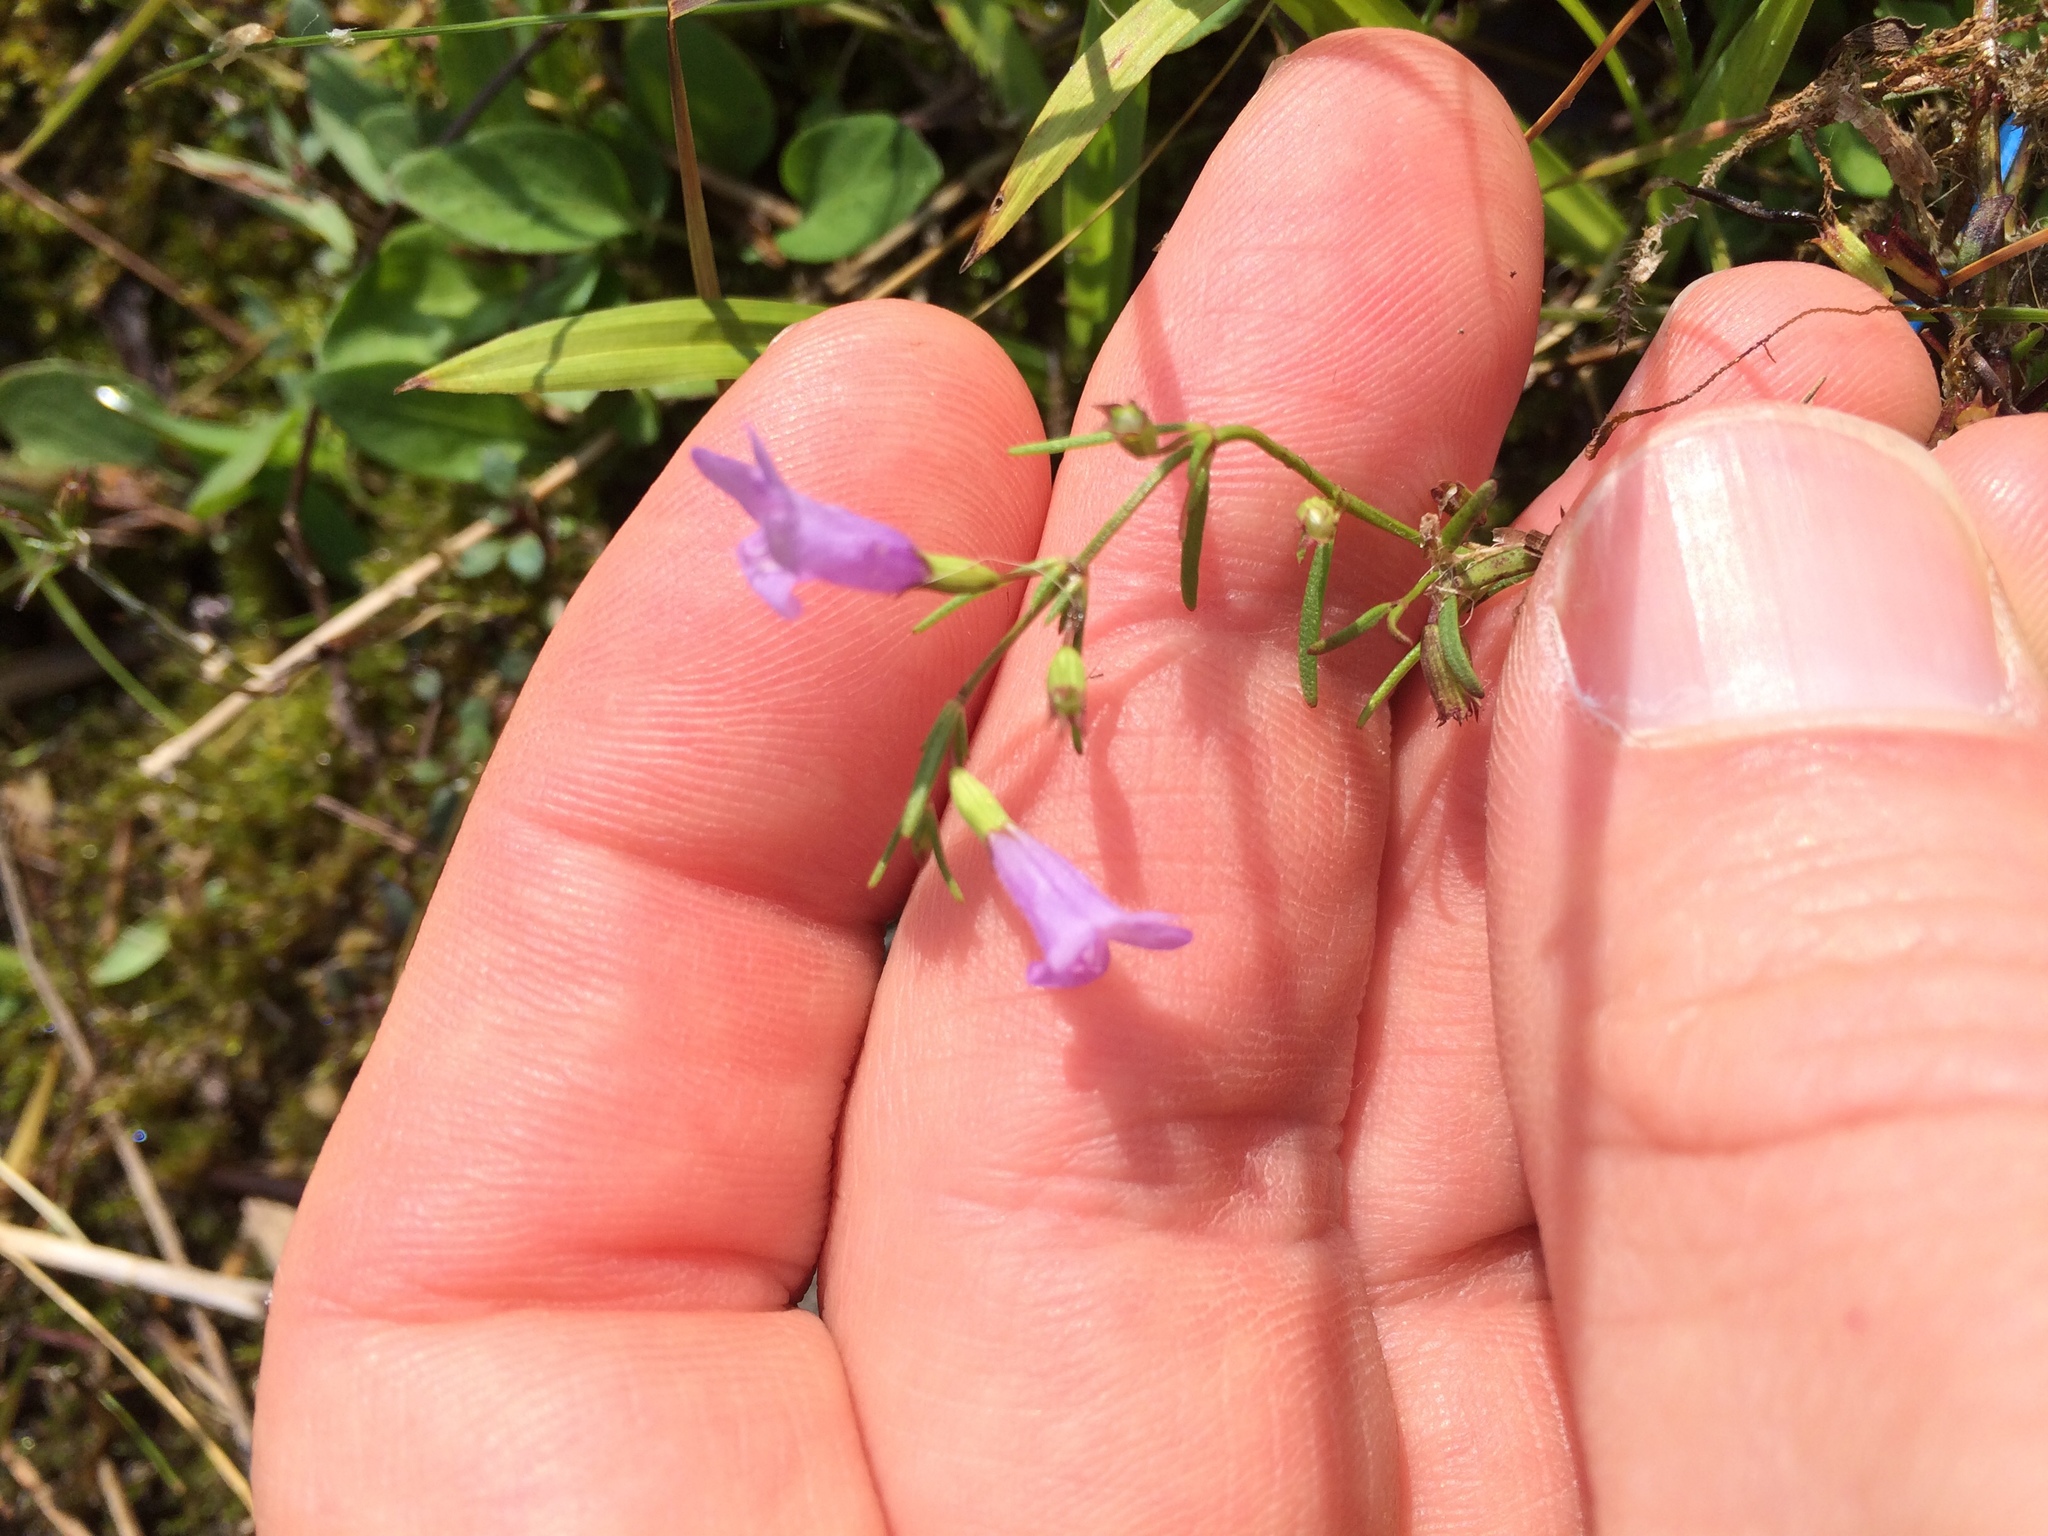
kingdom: Plantae
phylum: Tracheophyta
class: Magnoliopsida
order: Lamiales
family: Orobanchaceae
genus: Agalinis
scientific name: Agalinis purpurea
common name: Purple false foxglove
